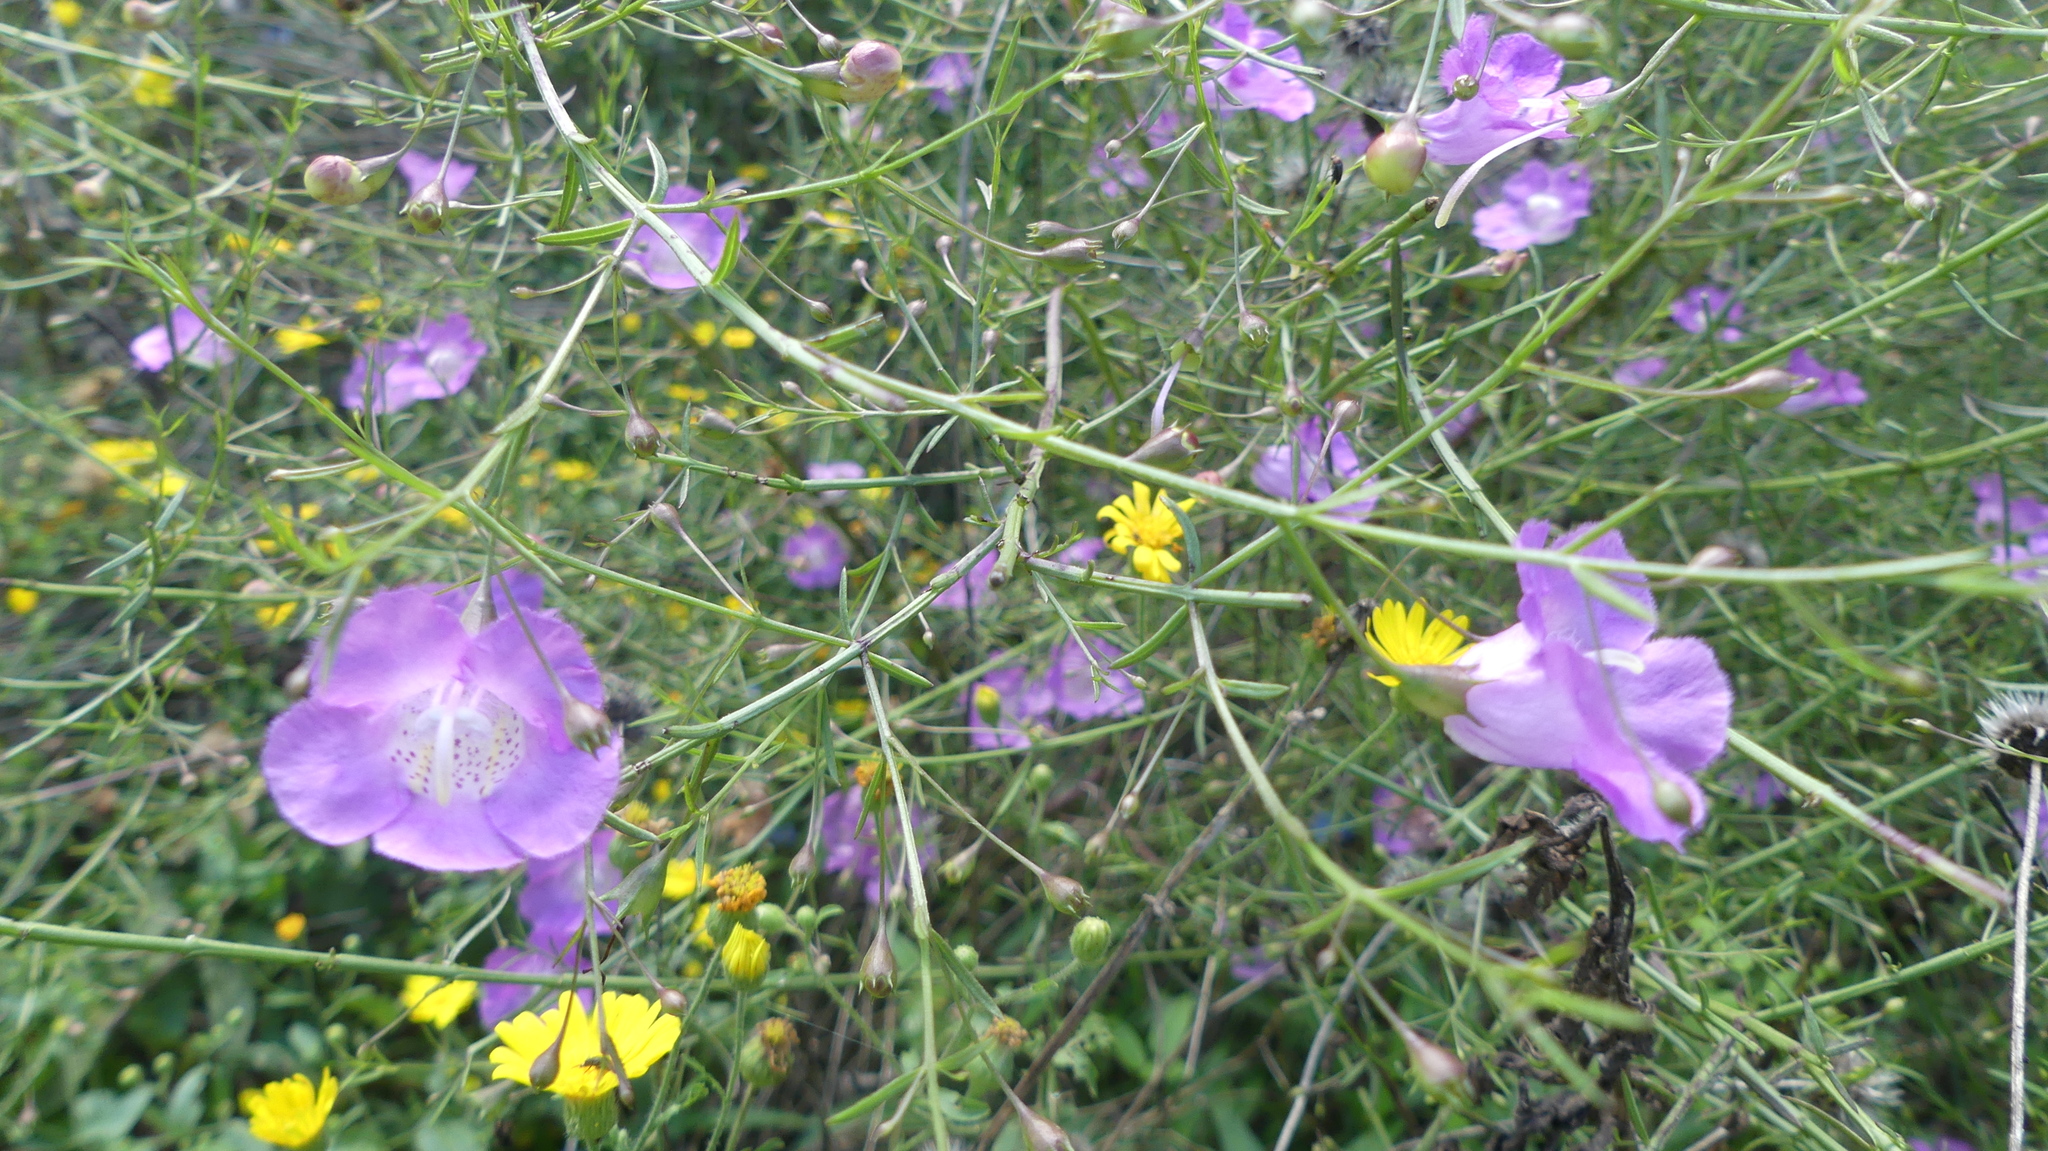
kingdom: Plantae
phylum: Tracheophyta
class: Magnoliopsida
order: Lamiales
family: Orobanchaceae
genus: Agalinis
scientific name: Agalinis strictifolia
